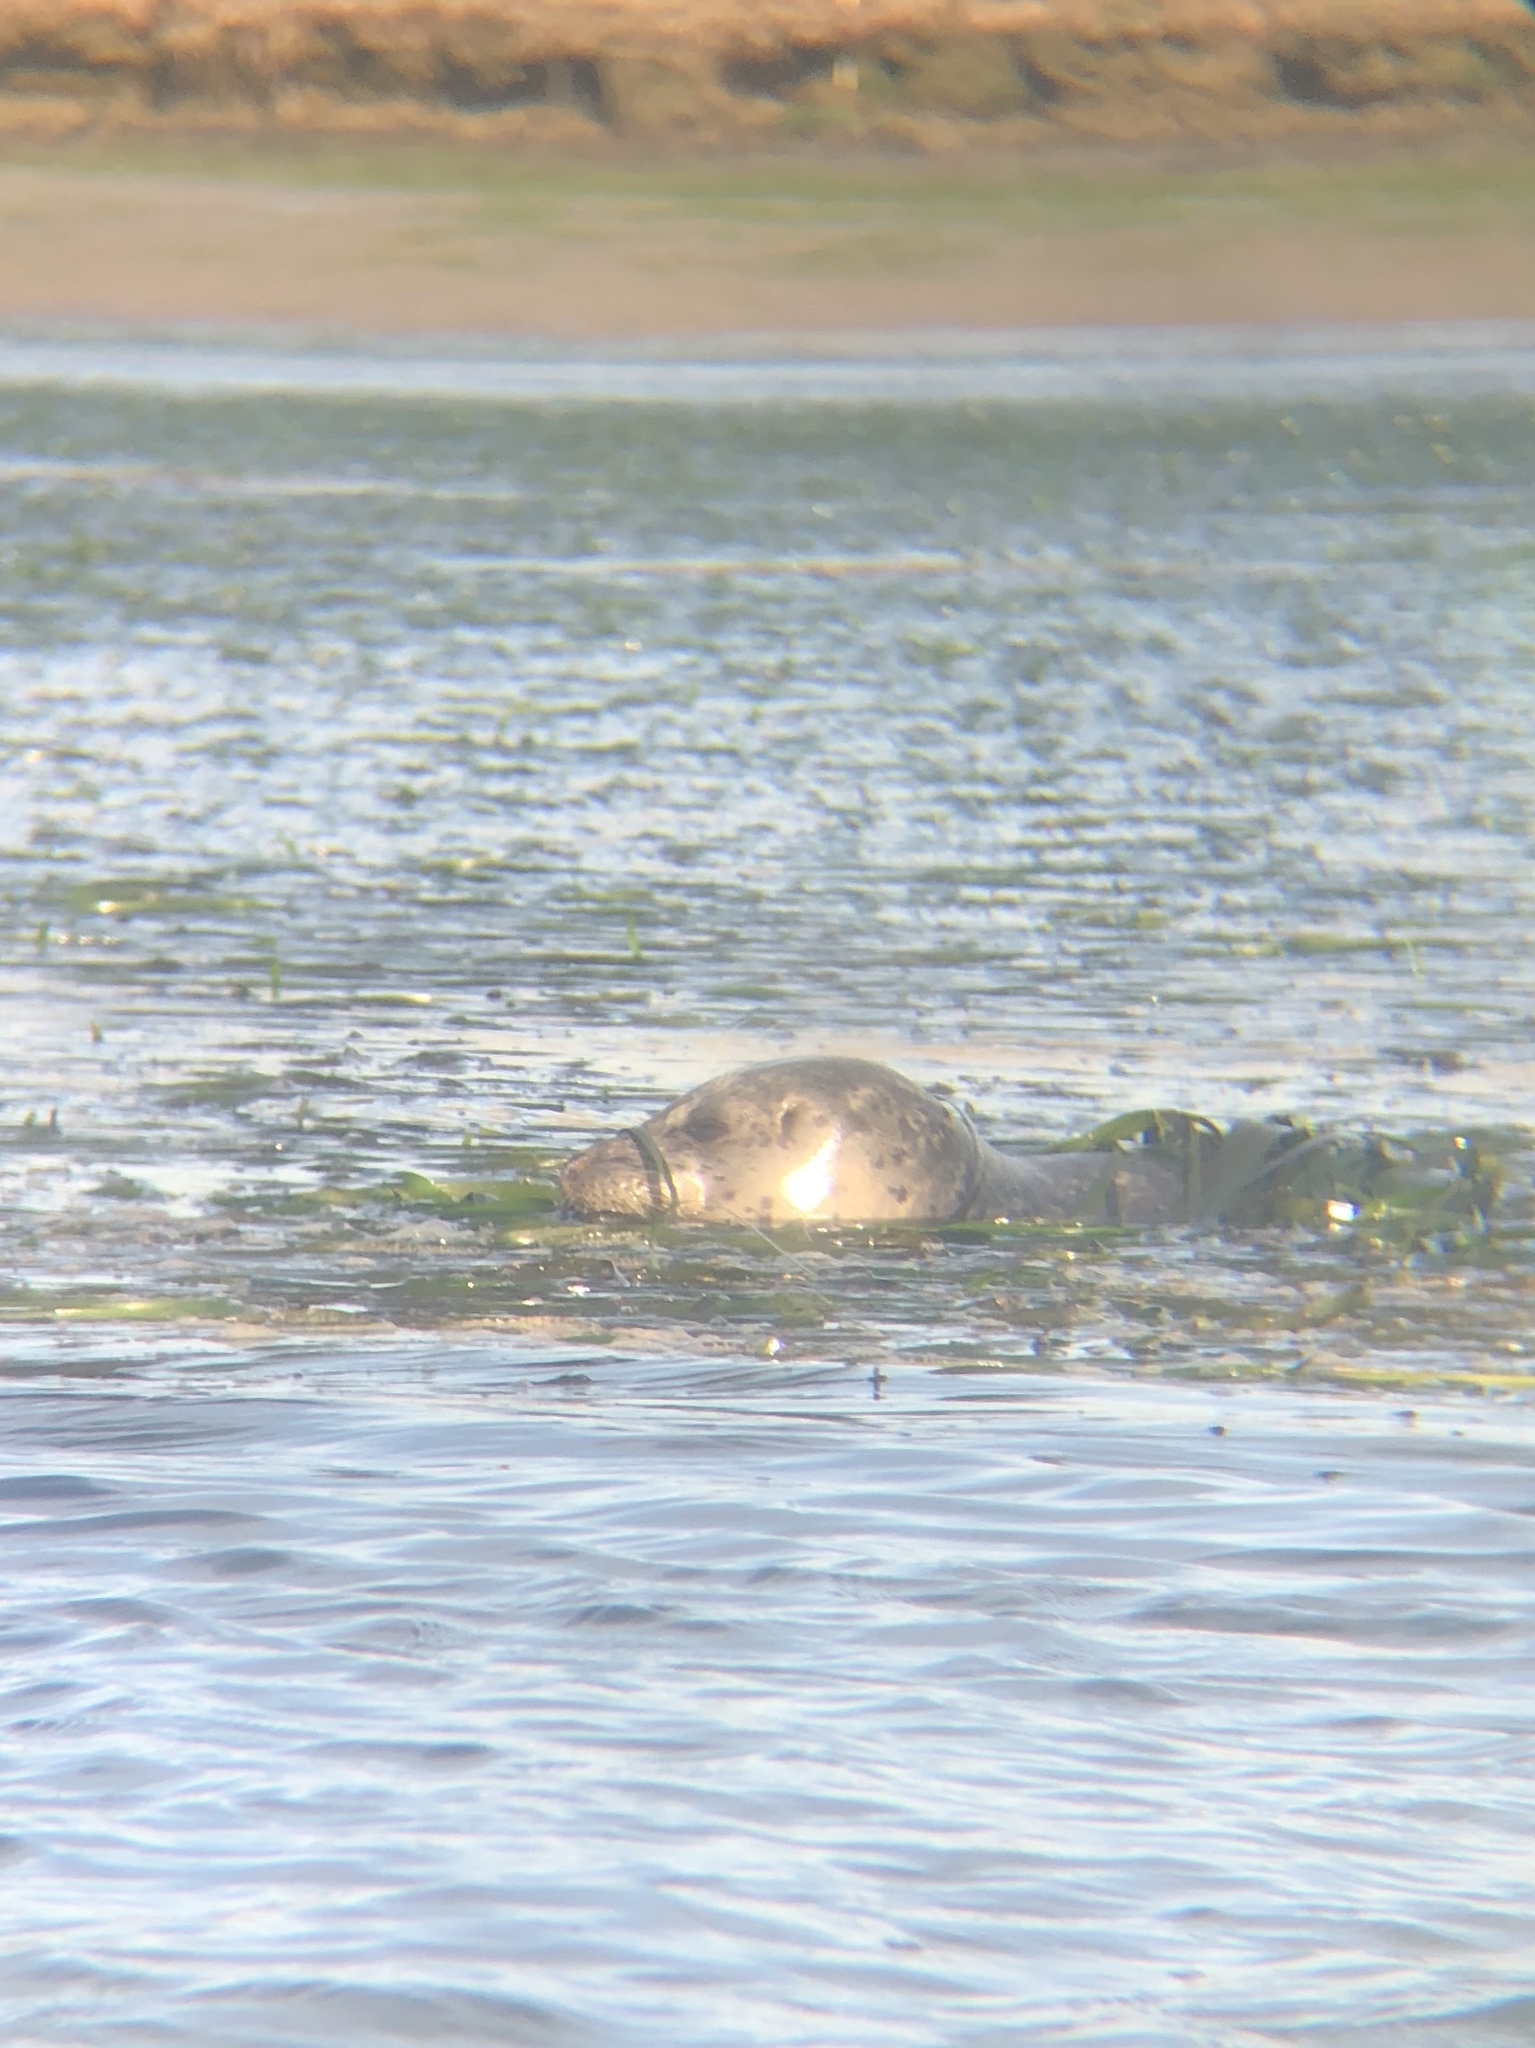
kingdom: Animalia
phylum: Chordata
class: Mammalia
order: Carnivora
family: Phocidae
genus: Phoca
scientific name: Phoca vitulina
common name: Harbor seal
